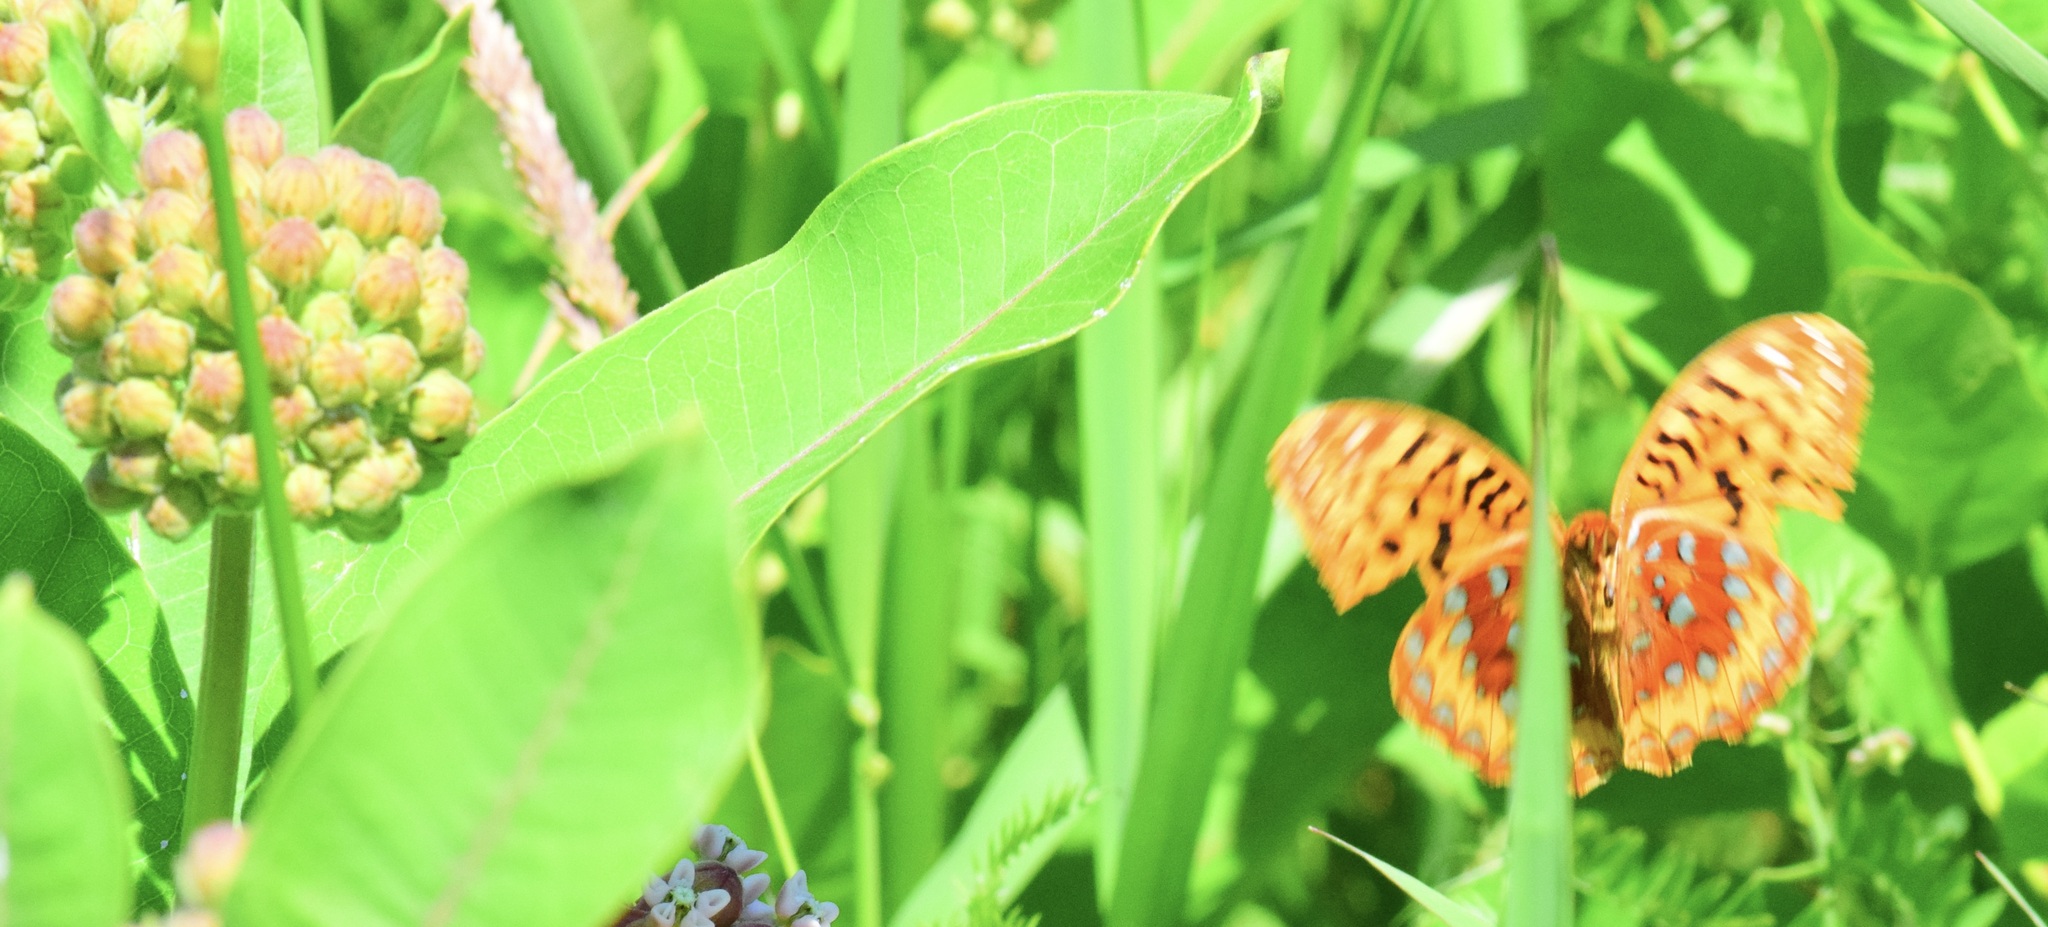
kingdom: Animalia
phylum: Arthropoda
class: Insecta
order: Lepidoptera
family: Nymphalidae
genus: Speyeria
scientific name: Speyeria cybele
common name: Great spangled fritillary
